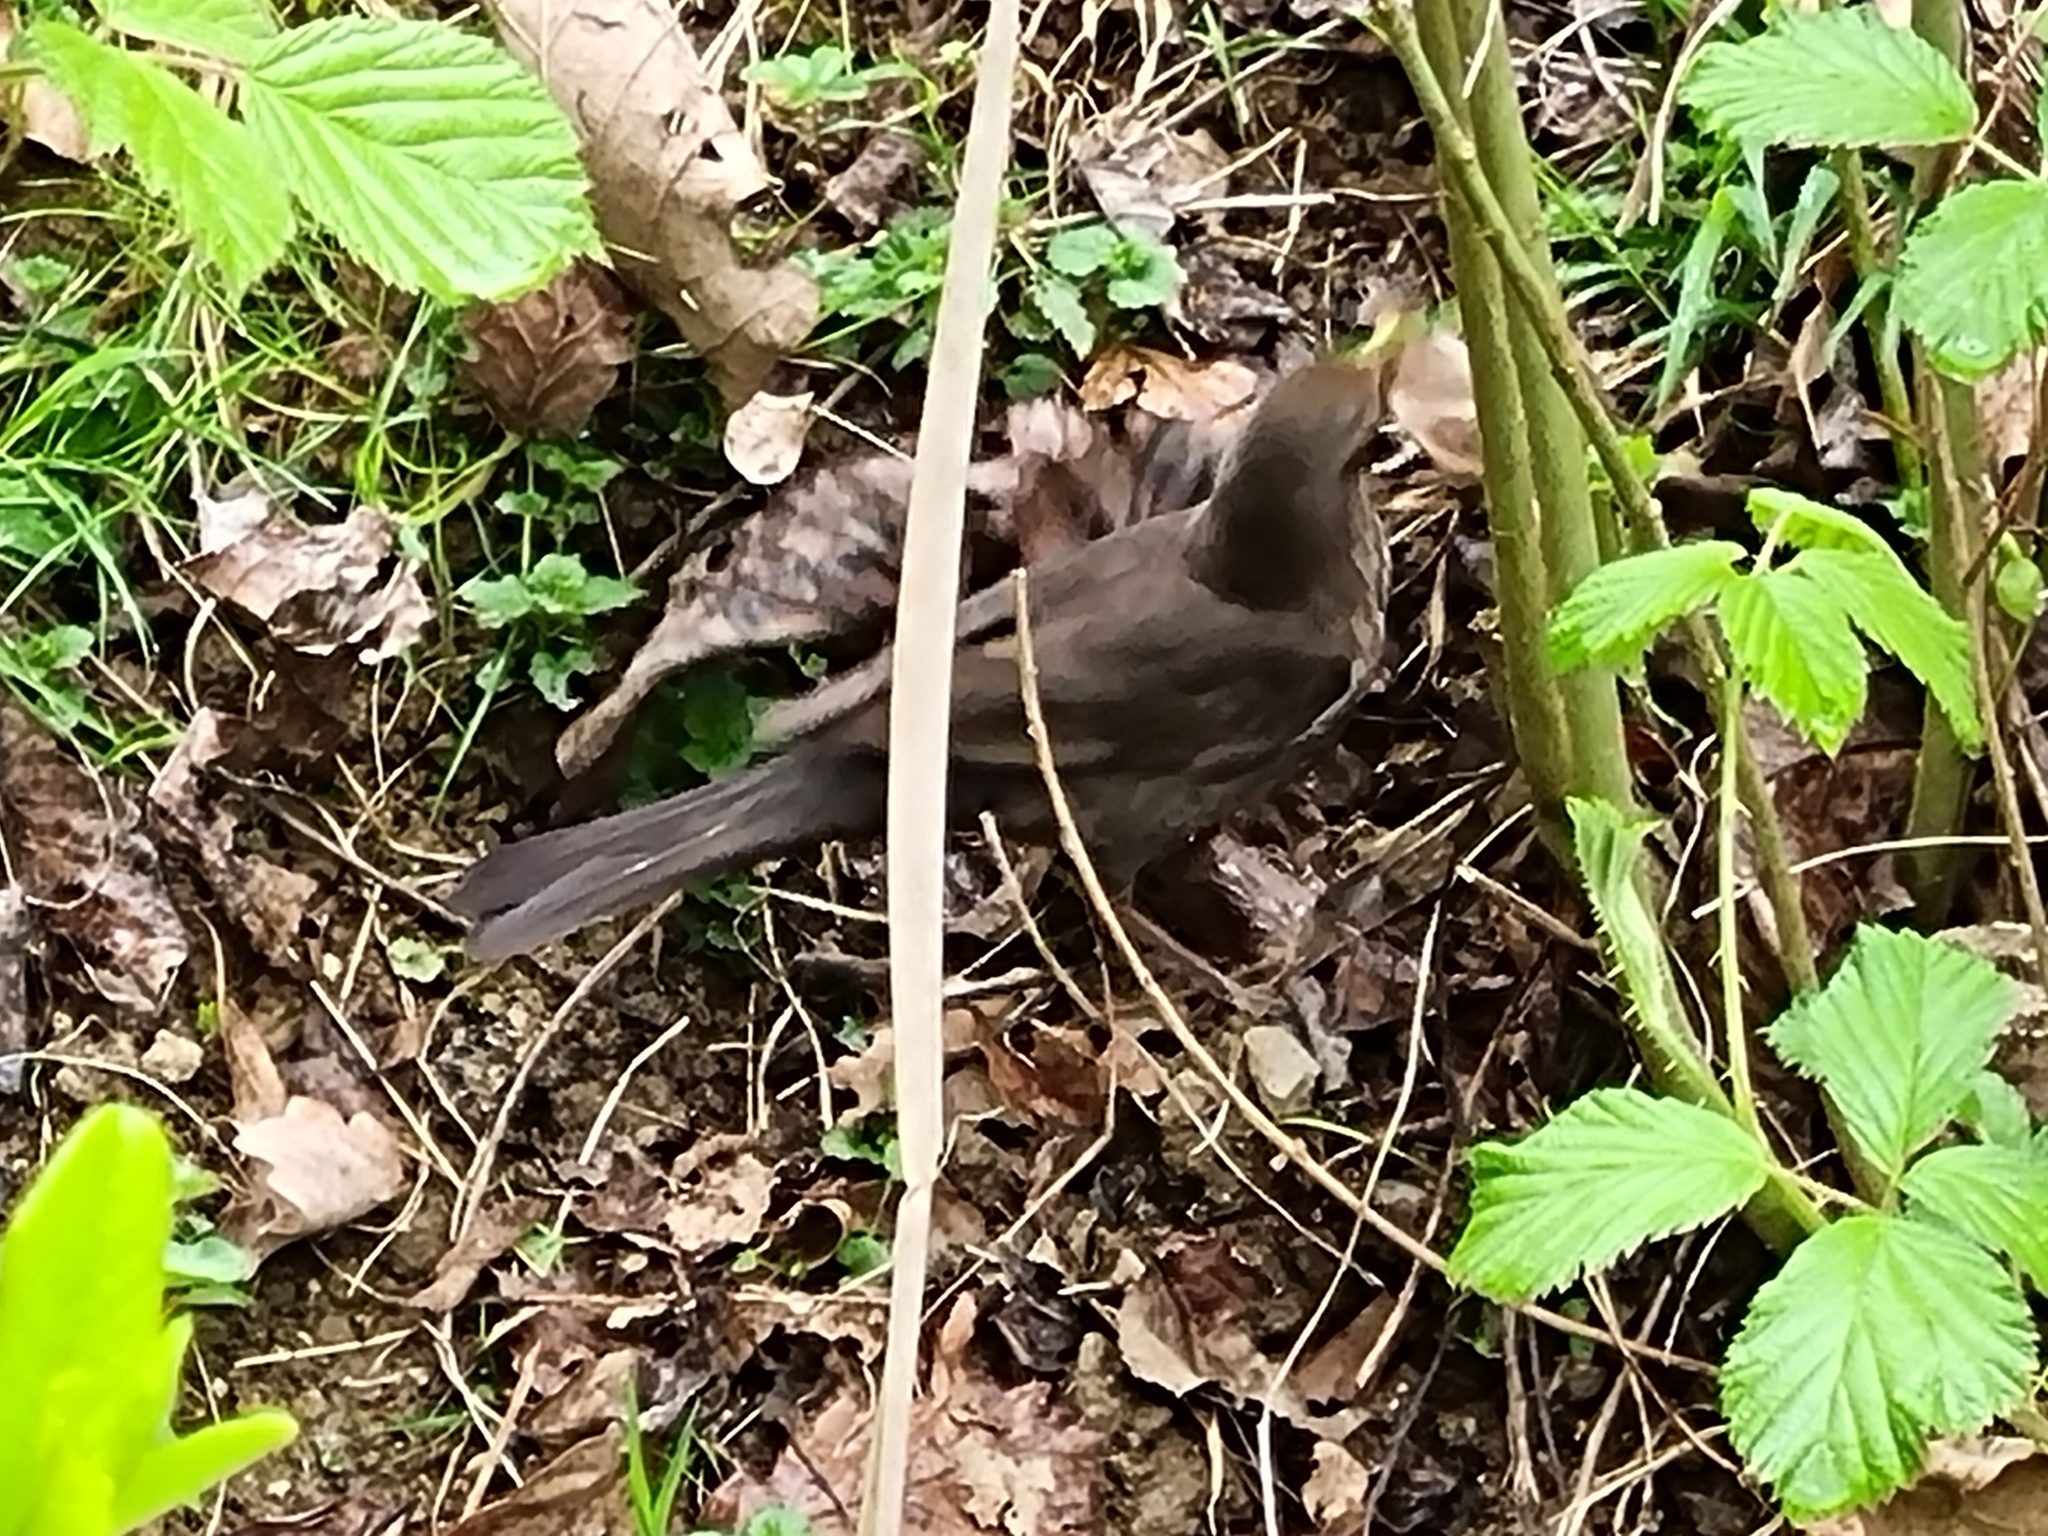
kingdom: Animalia
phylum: Chordata
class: Aves
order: Passeriformes
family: Turdidae
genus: Turdus
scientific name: Turdus merula
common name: Common blackbird
